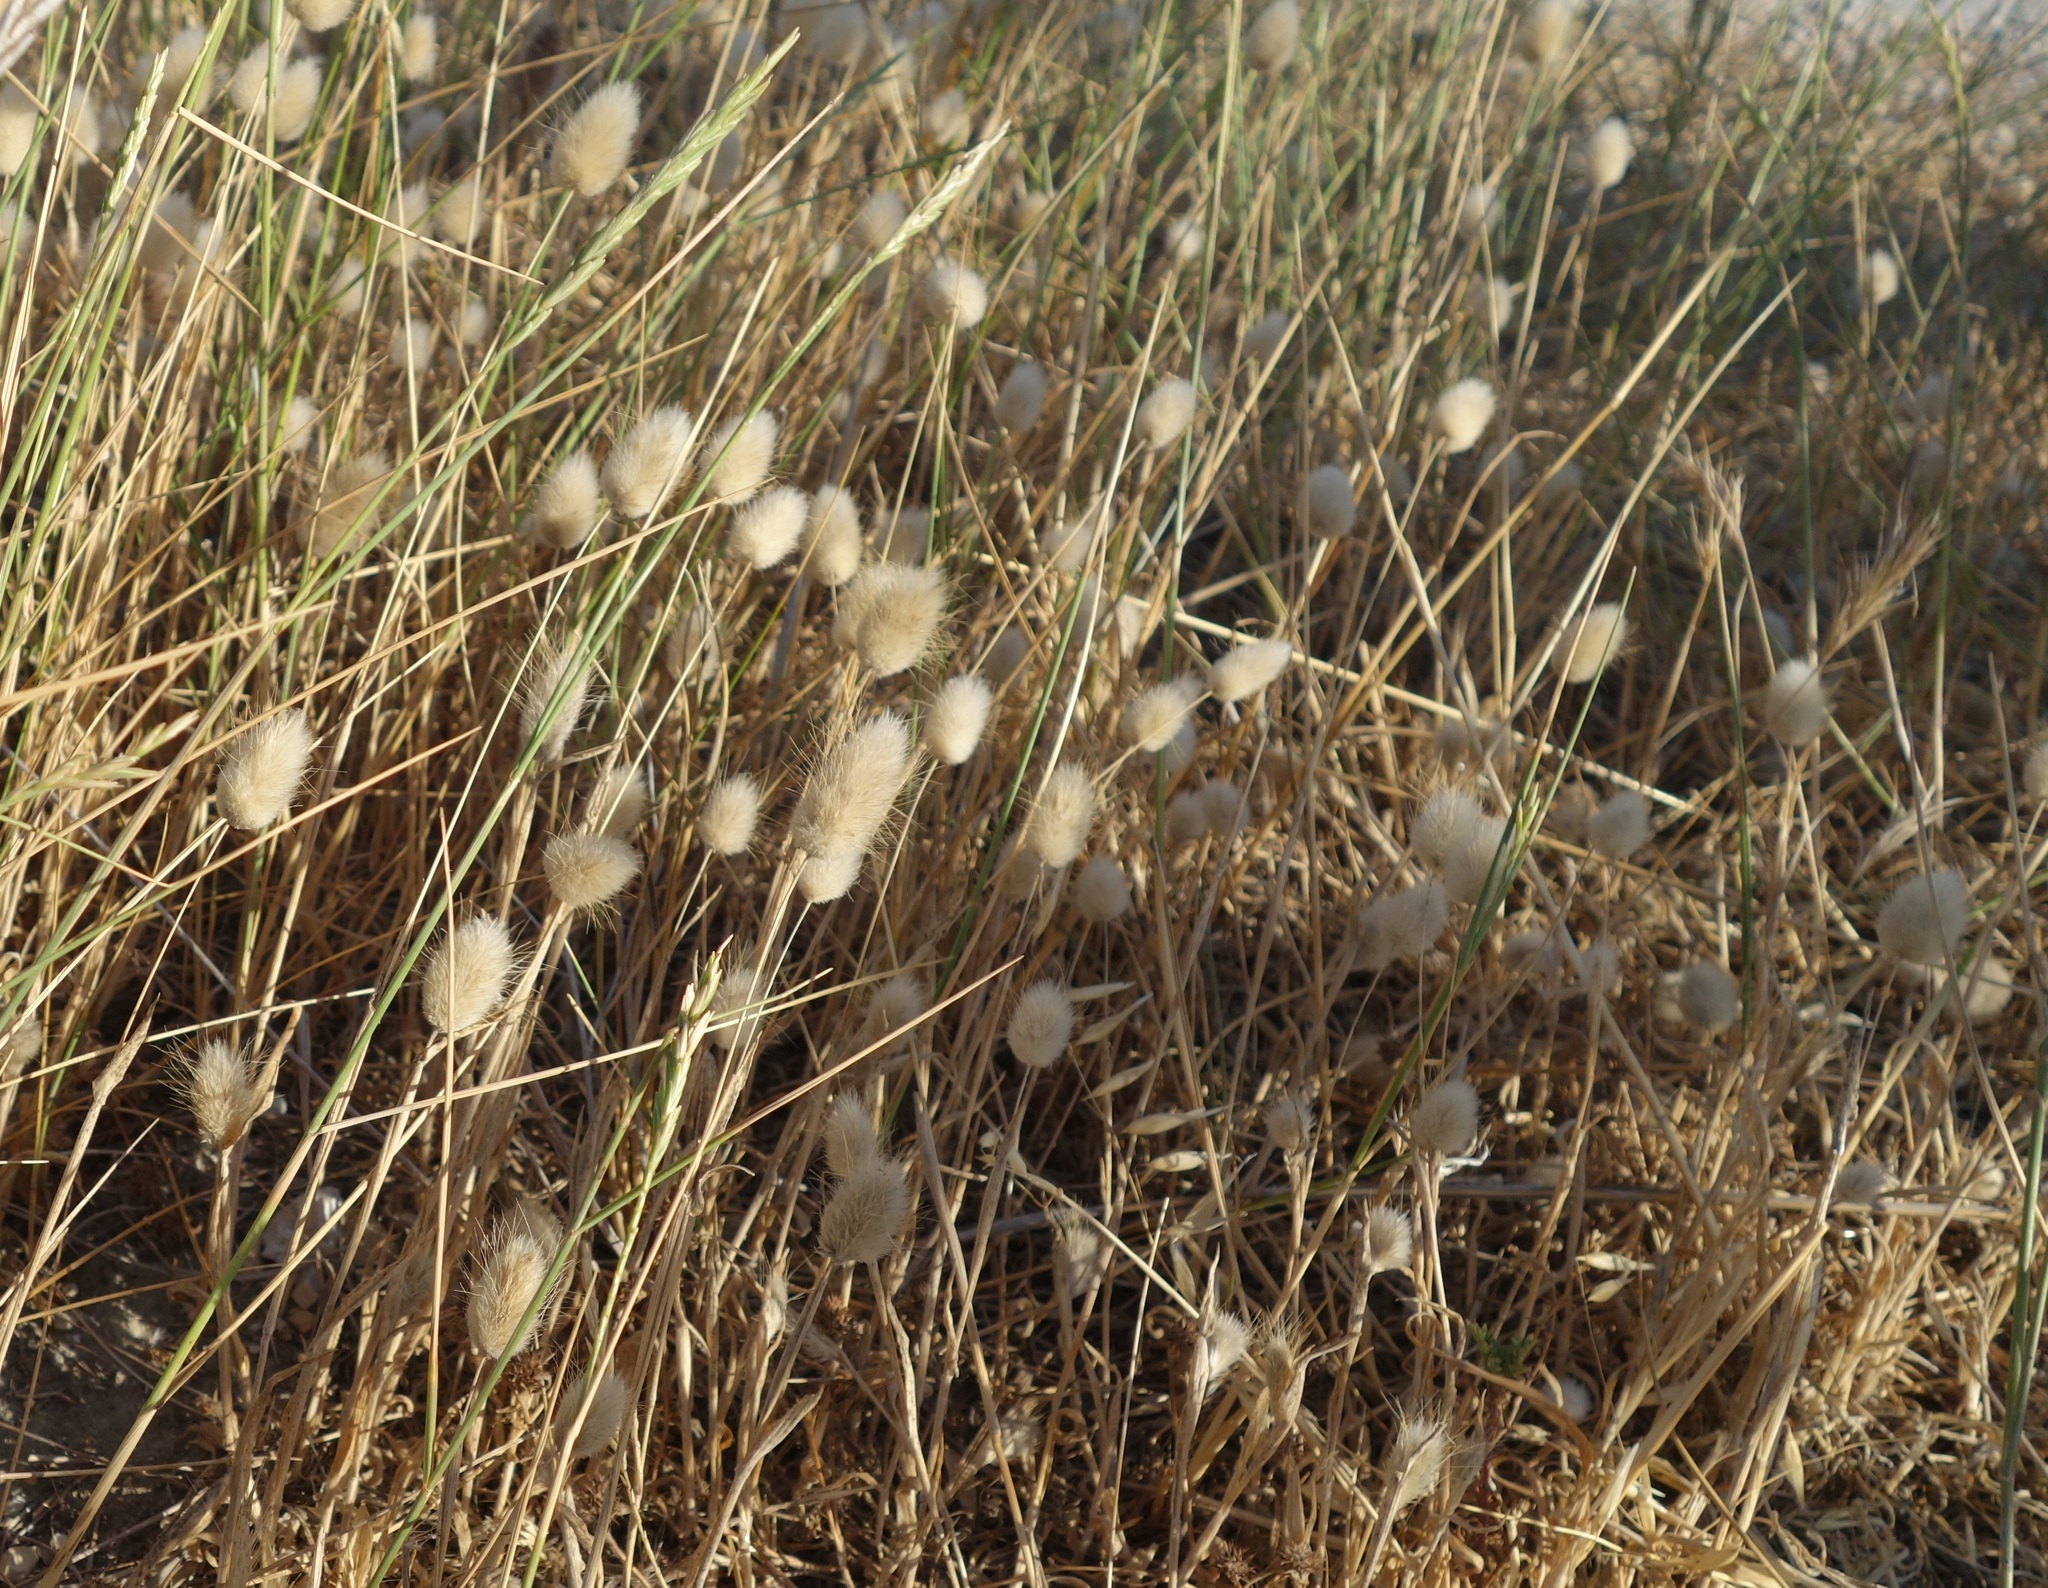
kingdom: Plantae
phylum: Tracheophyta
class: Liliopsida
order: Poales
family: Poaceae
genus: Lagurus
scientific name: Lagurus ovatus
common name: Hare's-tail
